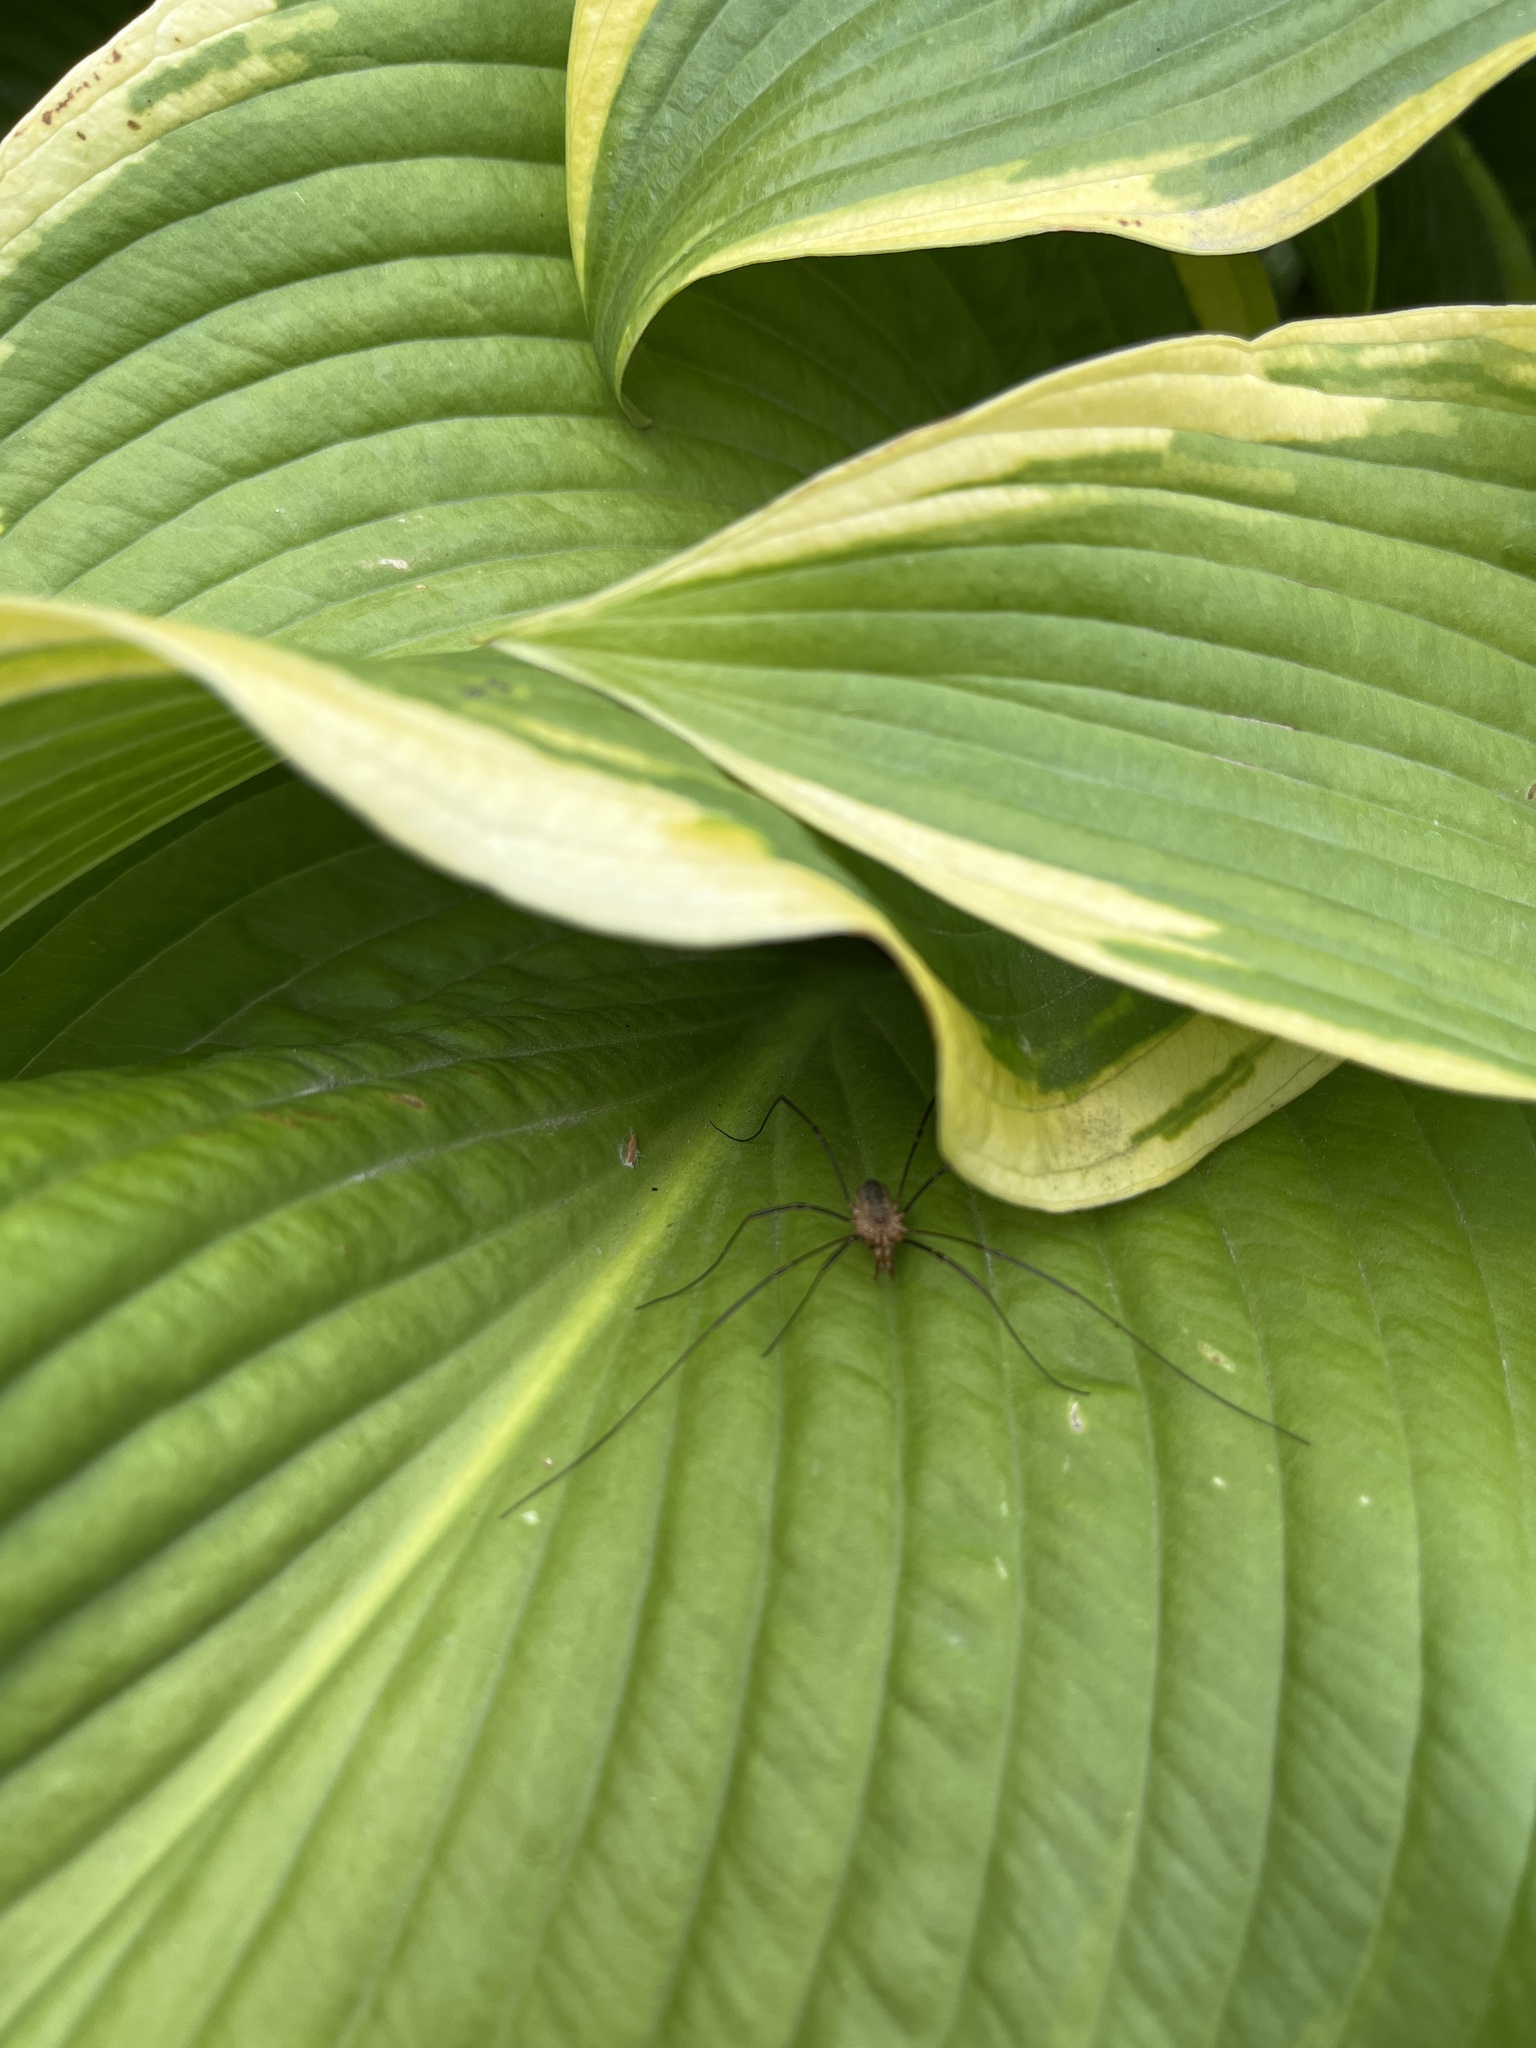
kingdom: Animalia
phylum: Arthropoda
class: Arachnida
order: Opiliones
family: Phalangiidae
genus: Phalangium
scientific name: Phalangium opilio
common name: Daddy longleg
